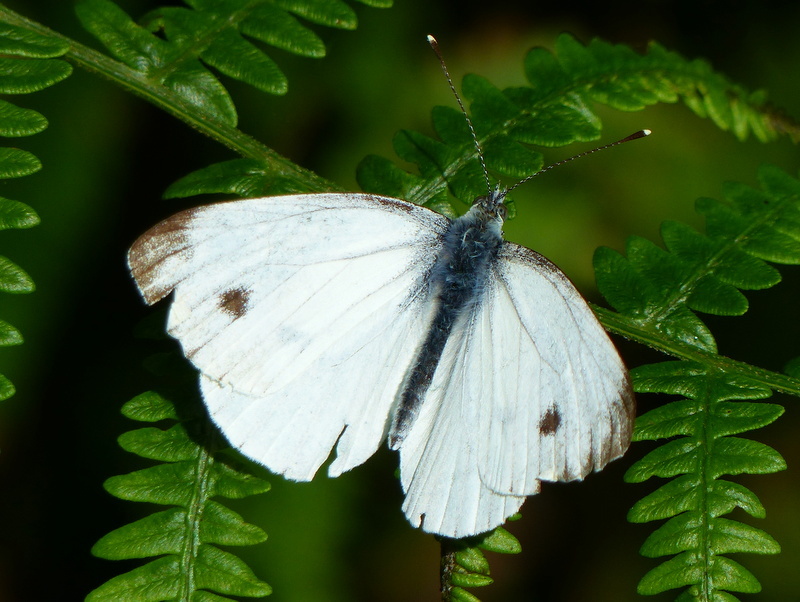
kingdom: Animalia
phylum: Arthropoda
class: Insecta
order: Lepidoptera
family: Pieridae
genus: Pieris
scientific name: Pieris napi
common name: Green-veined white
